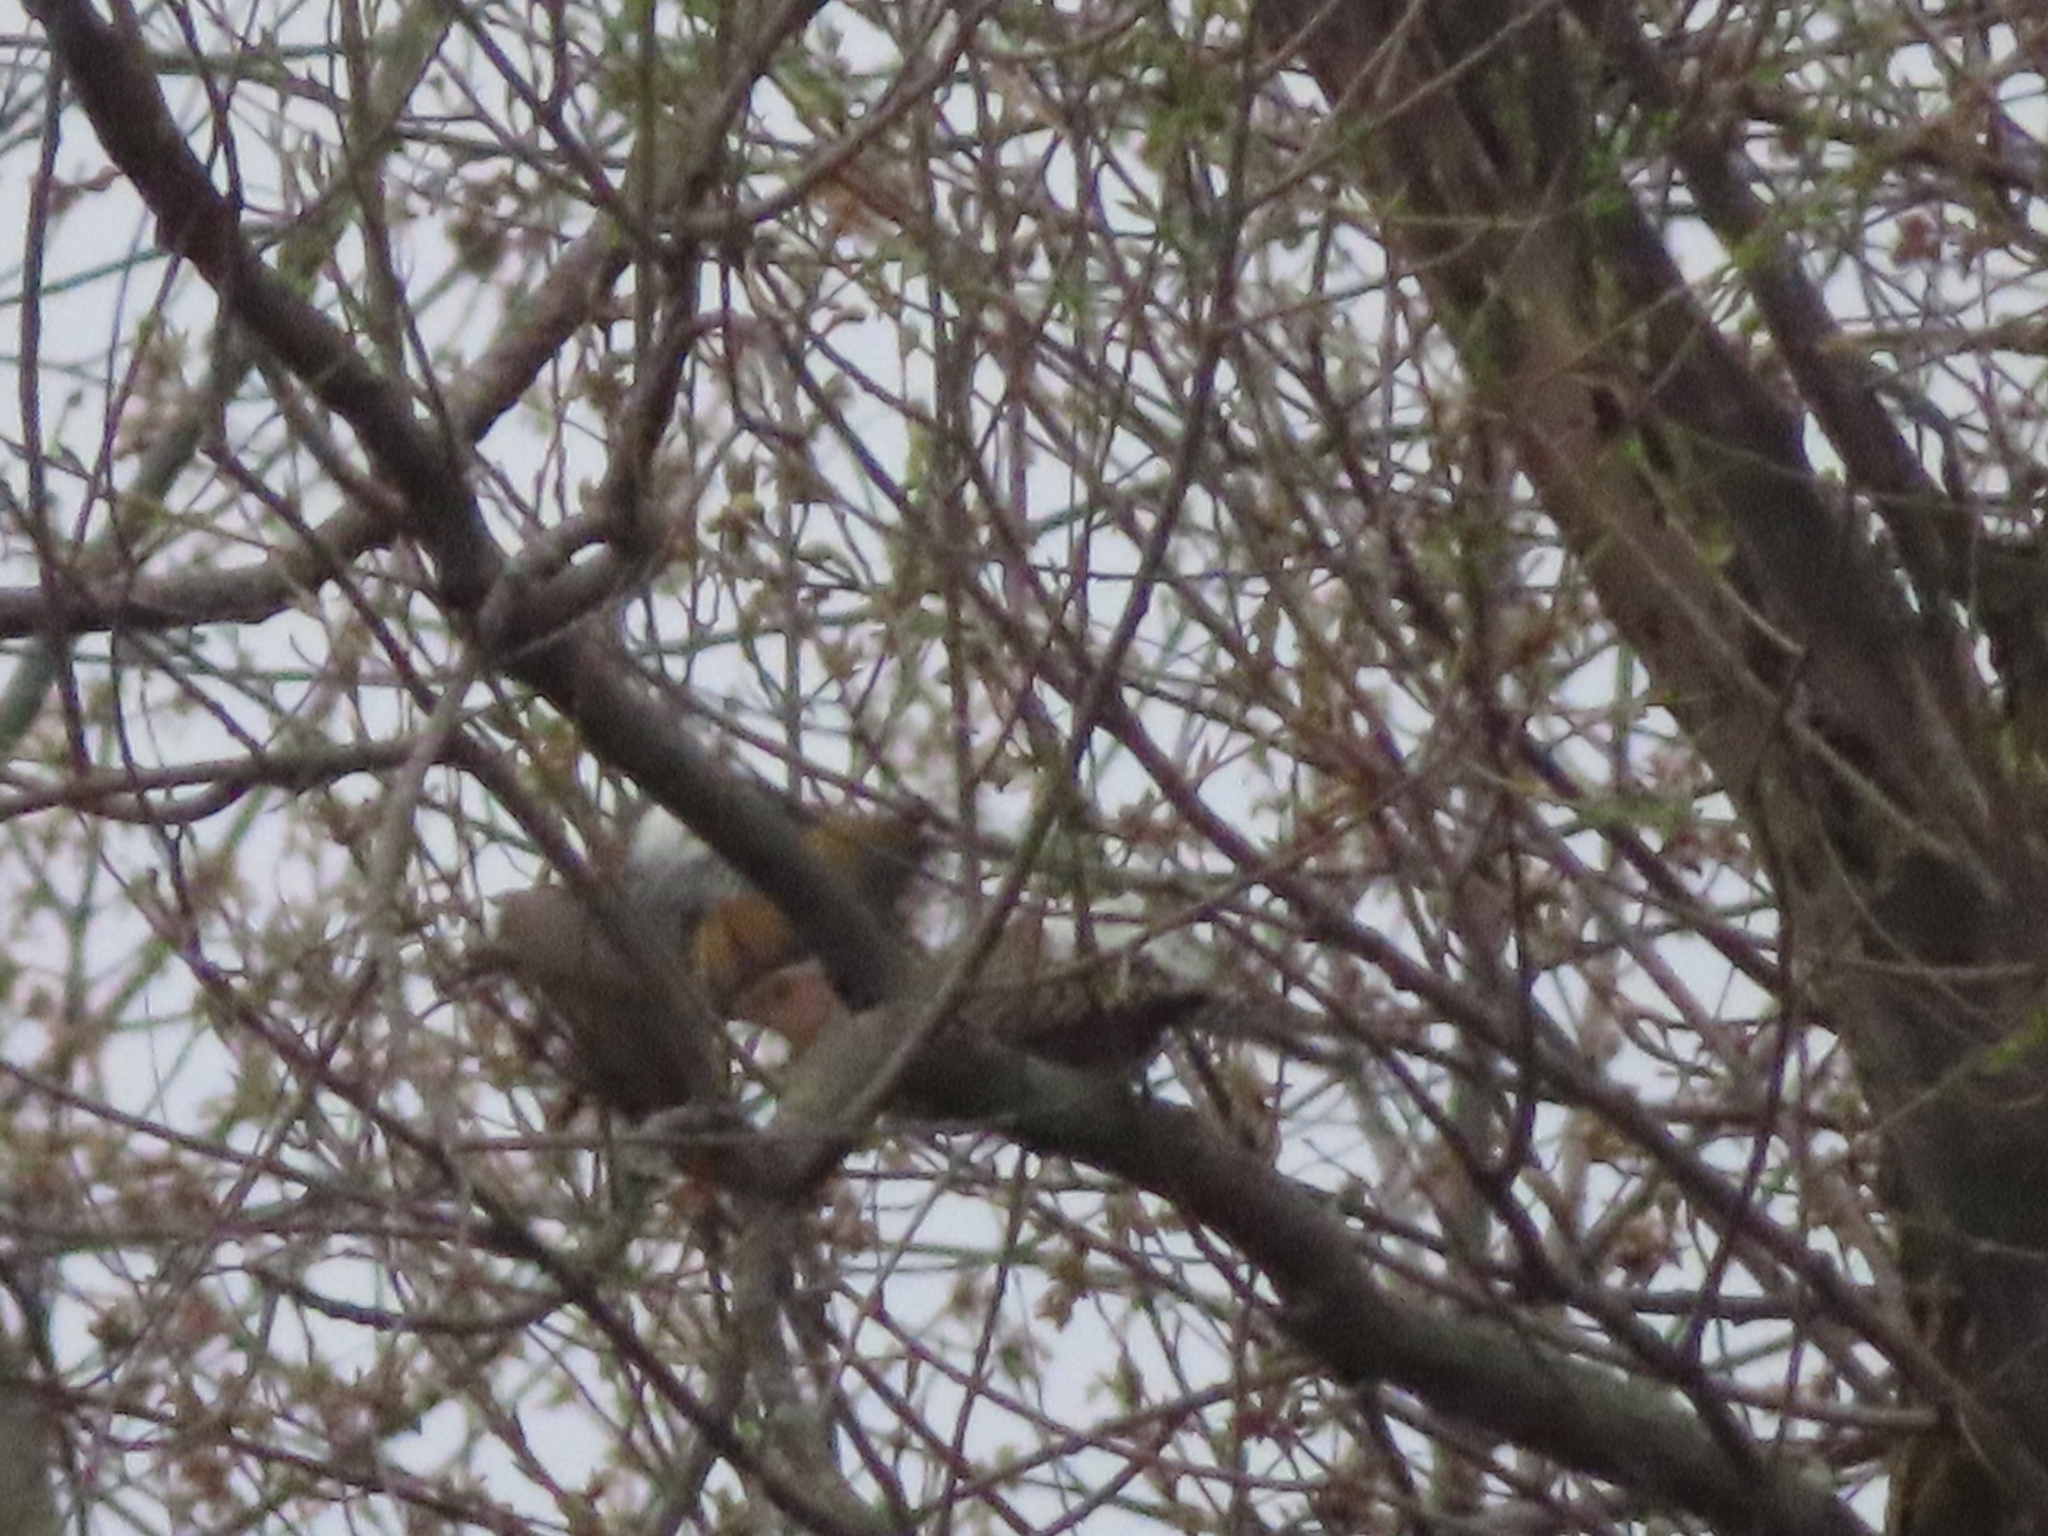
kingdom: Animalia
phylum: Chordata
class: Aves
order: Piciformes
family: Picidae
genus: Colaptes
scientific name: Colaptes auratus
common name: Northern flicker
